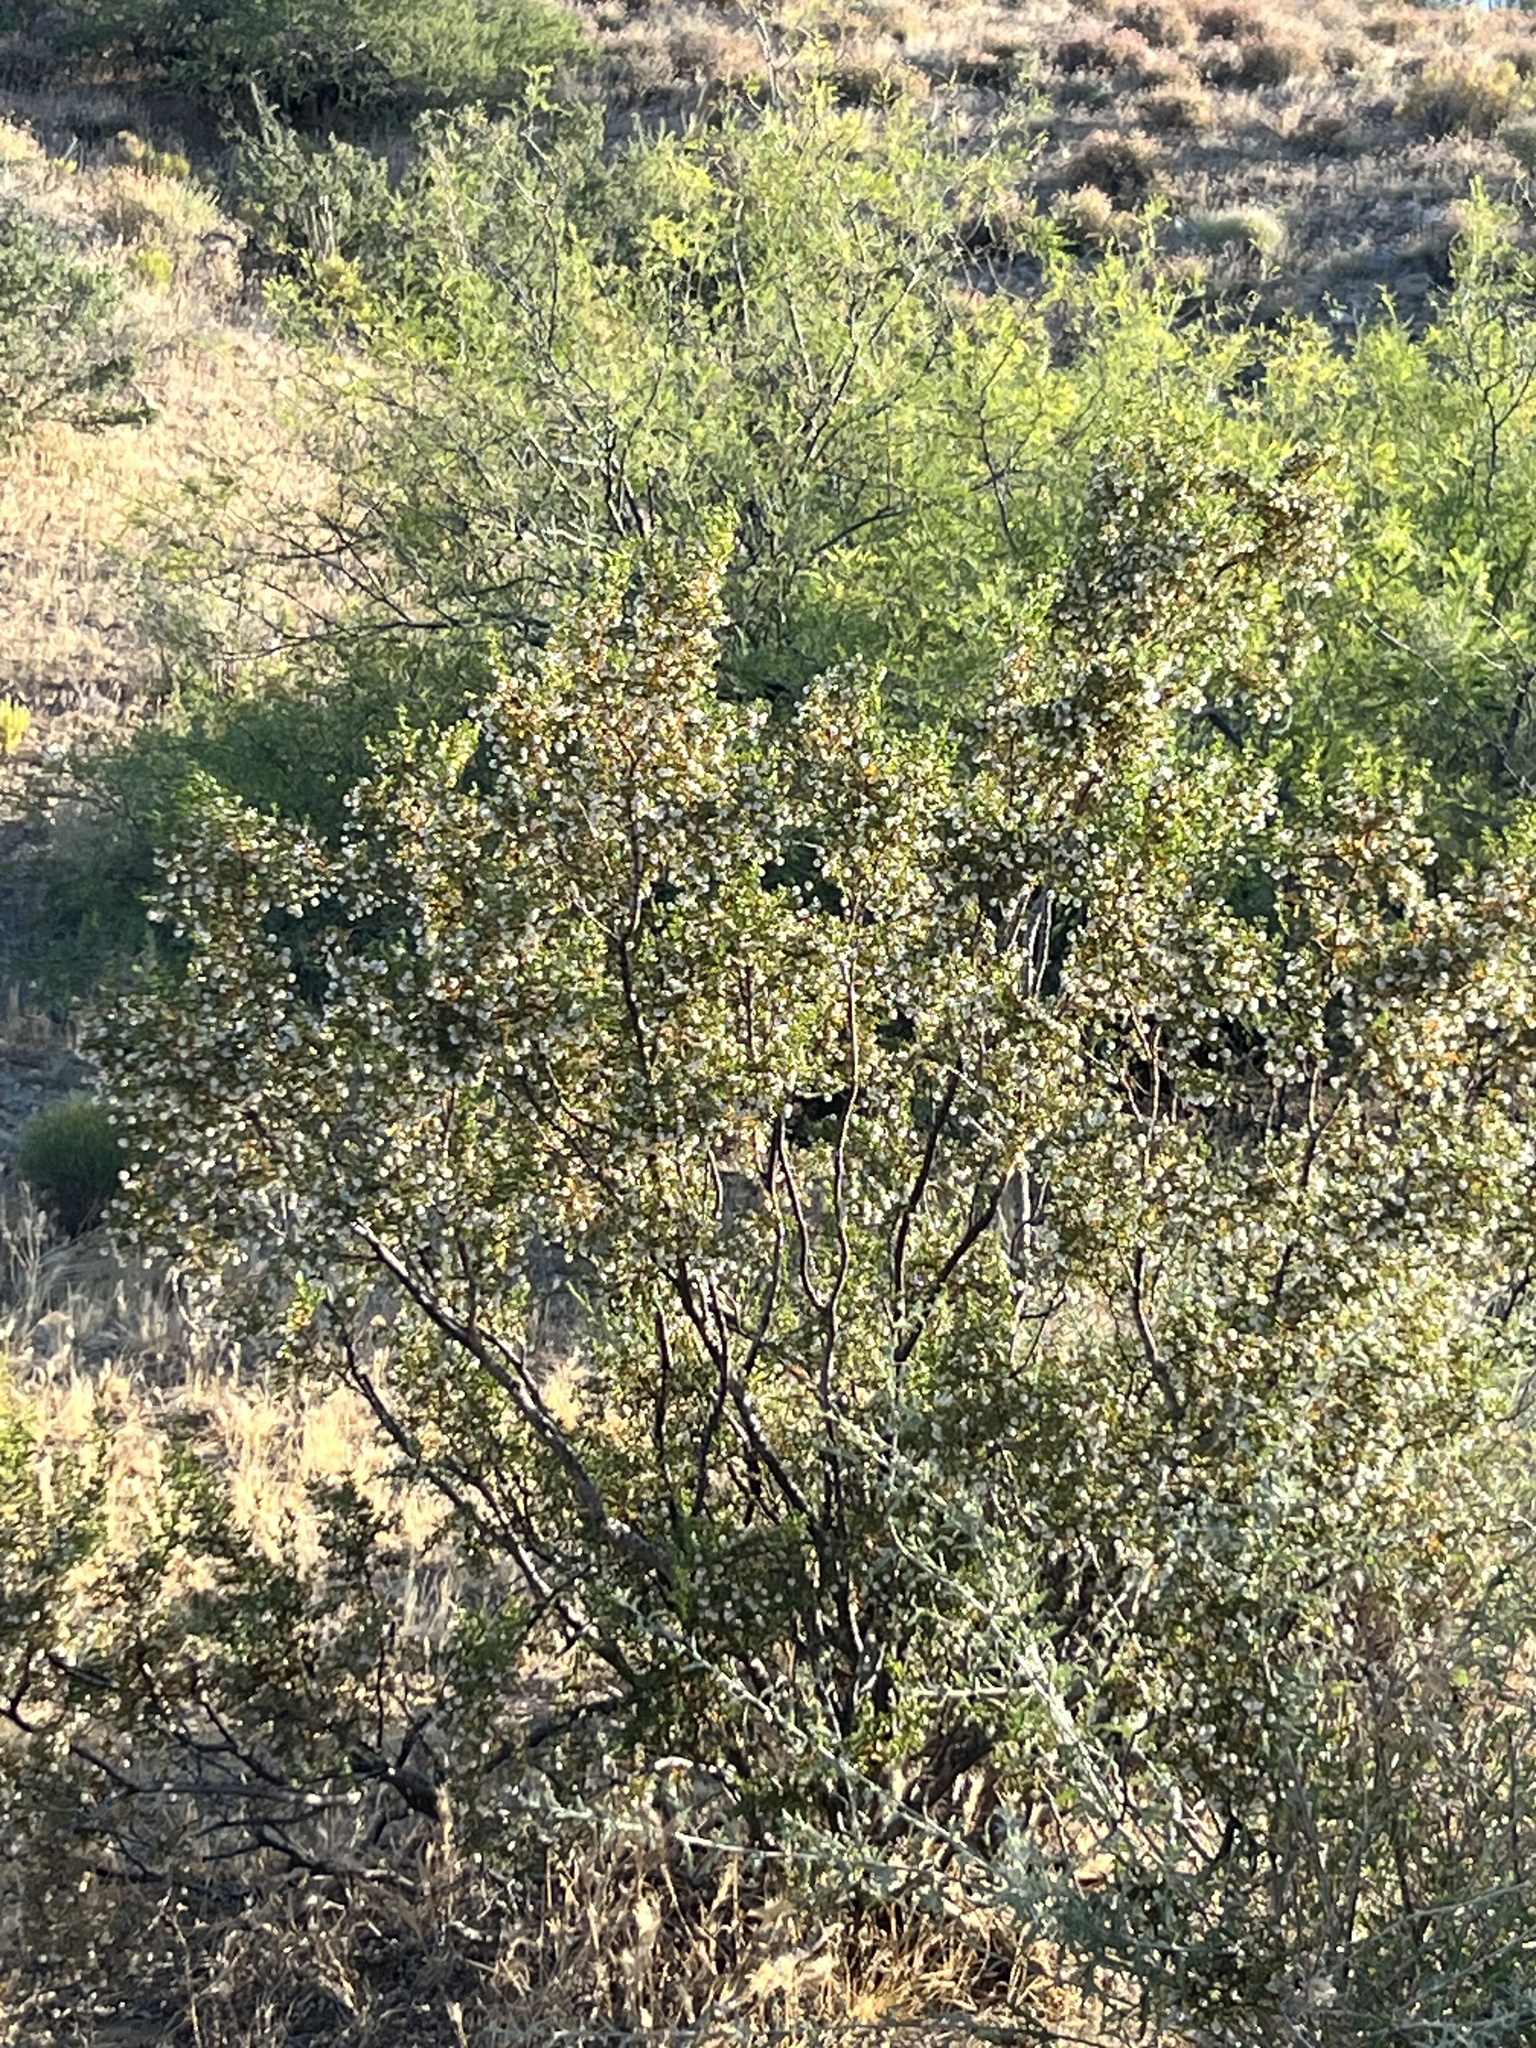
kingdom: Plantae
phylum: Tracheophyta
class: Magnoliopsida
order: Zygophyllales
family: Zygophyllaceae
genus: Larrea
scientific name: Larrea tridentata
